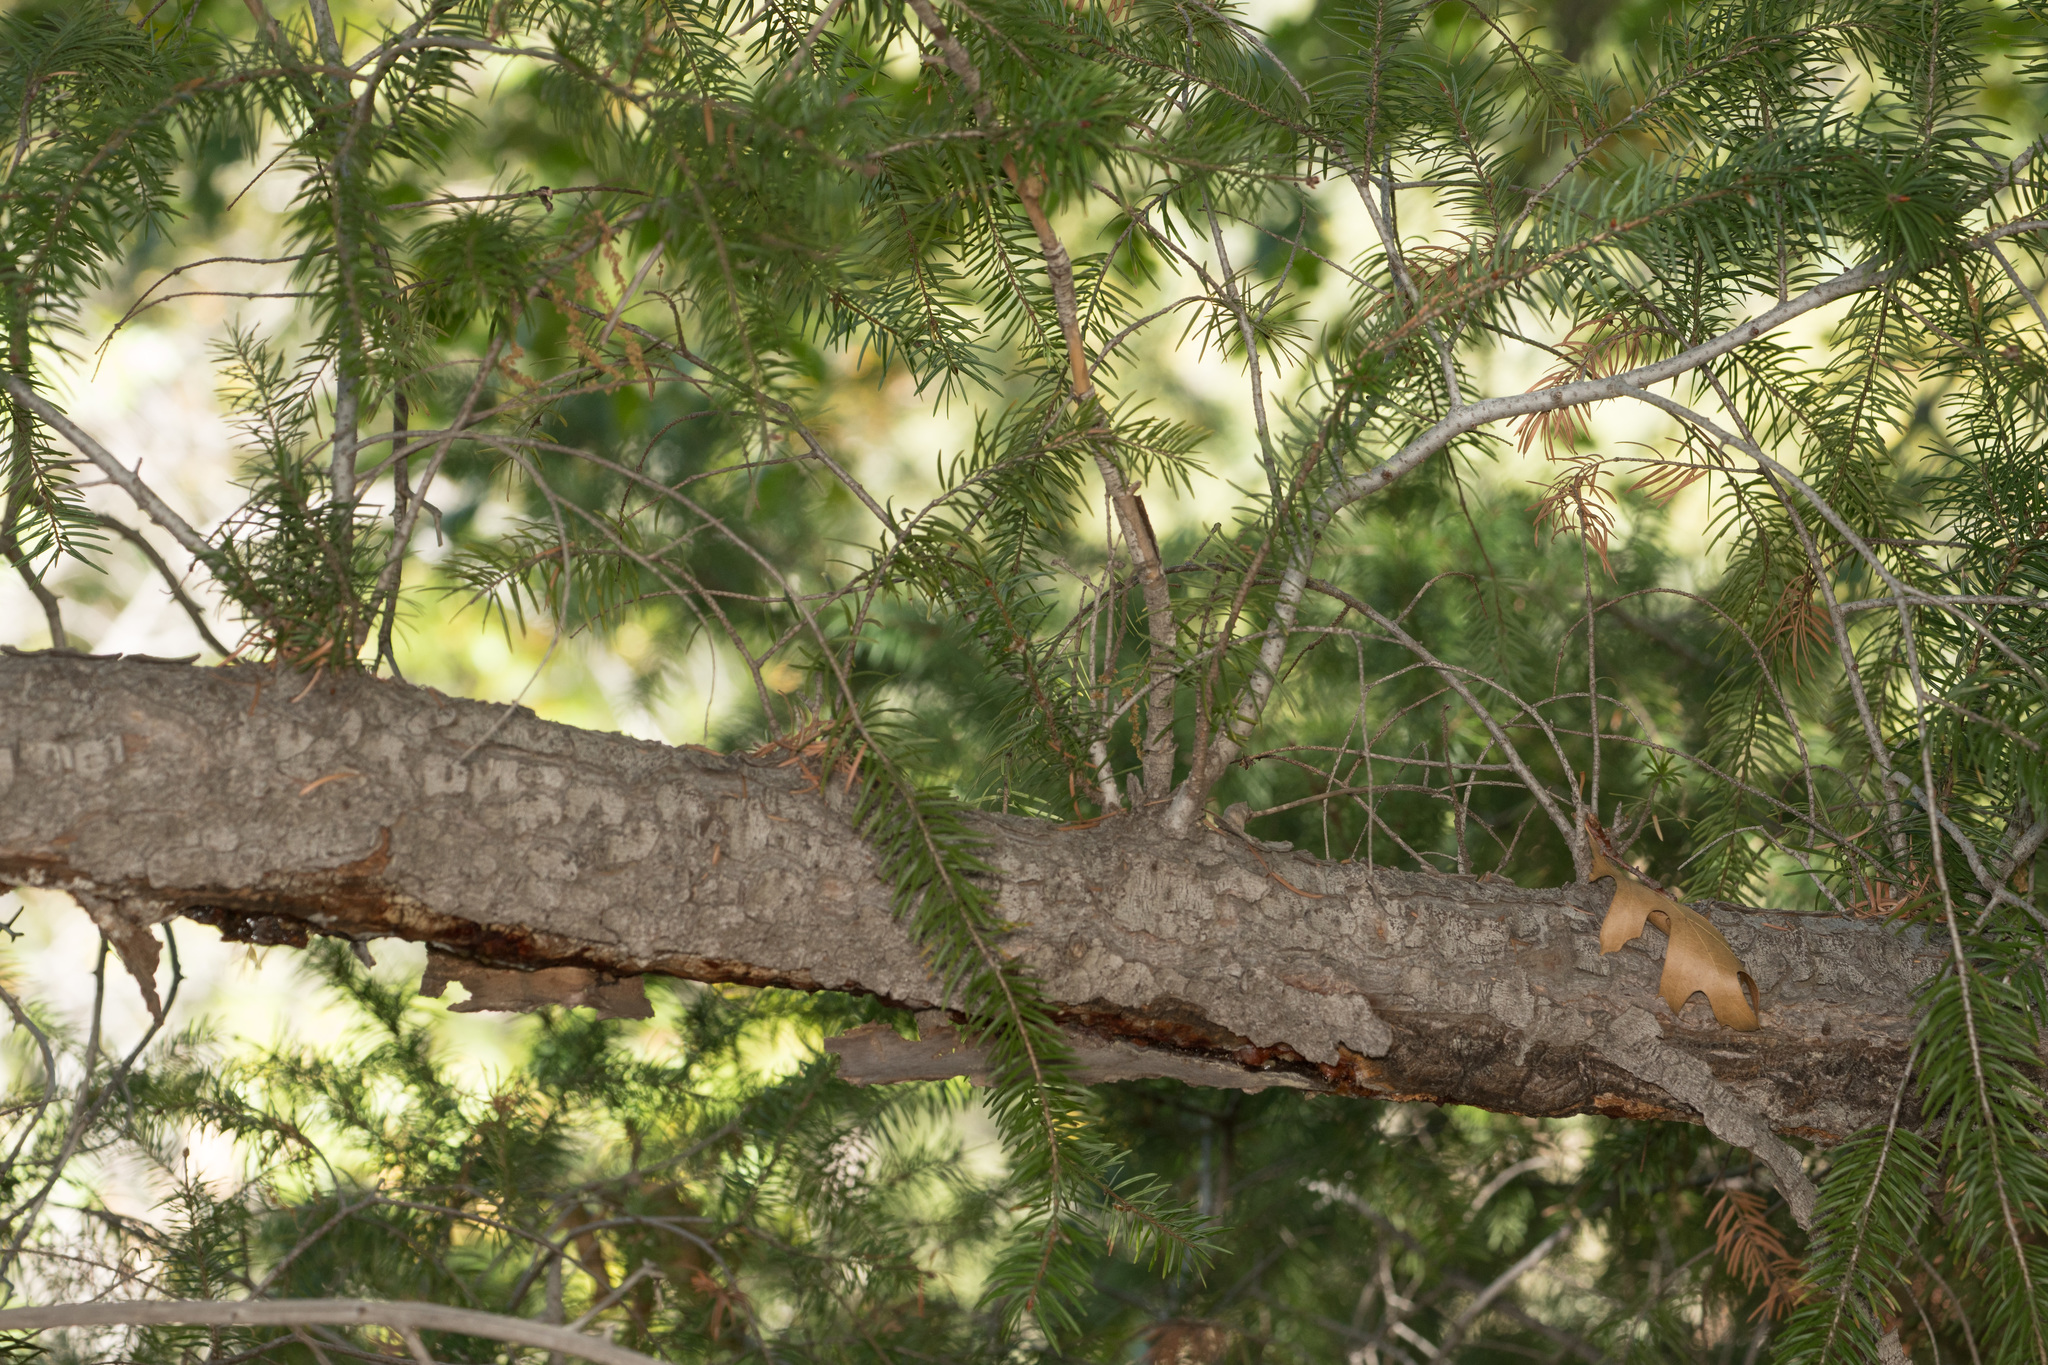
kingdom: Plantae
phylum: Tracheophyta
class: Pinopsida
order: Pinales
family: Pinaceae
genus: Pseudotsuga
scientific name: Pseudotsuga macrocarpa
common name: Big-cone douglas-fir
